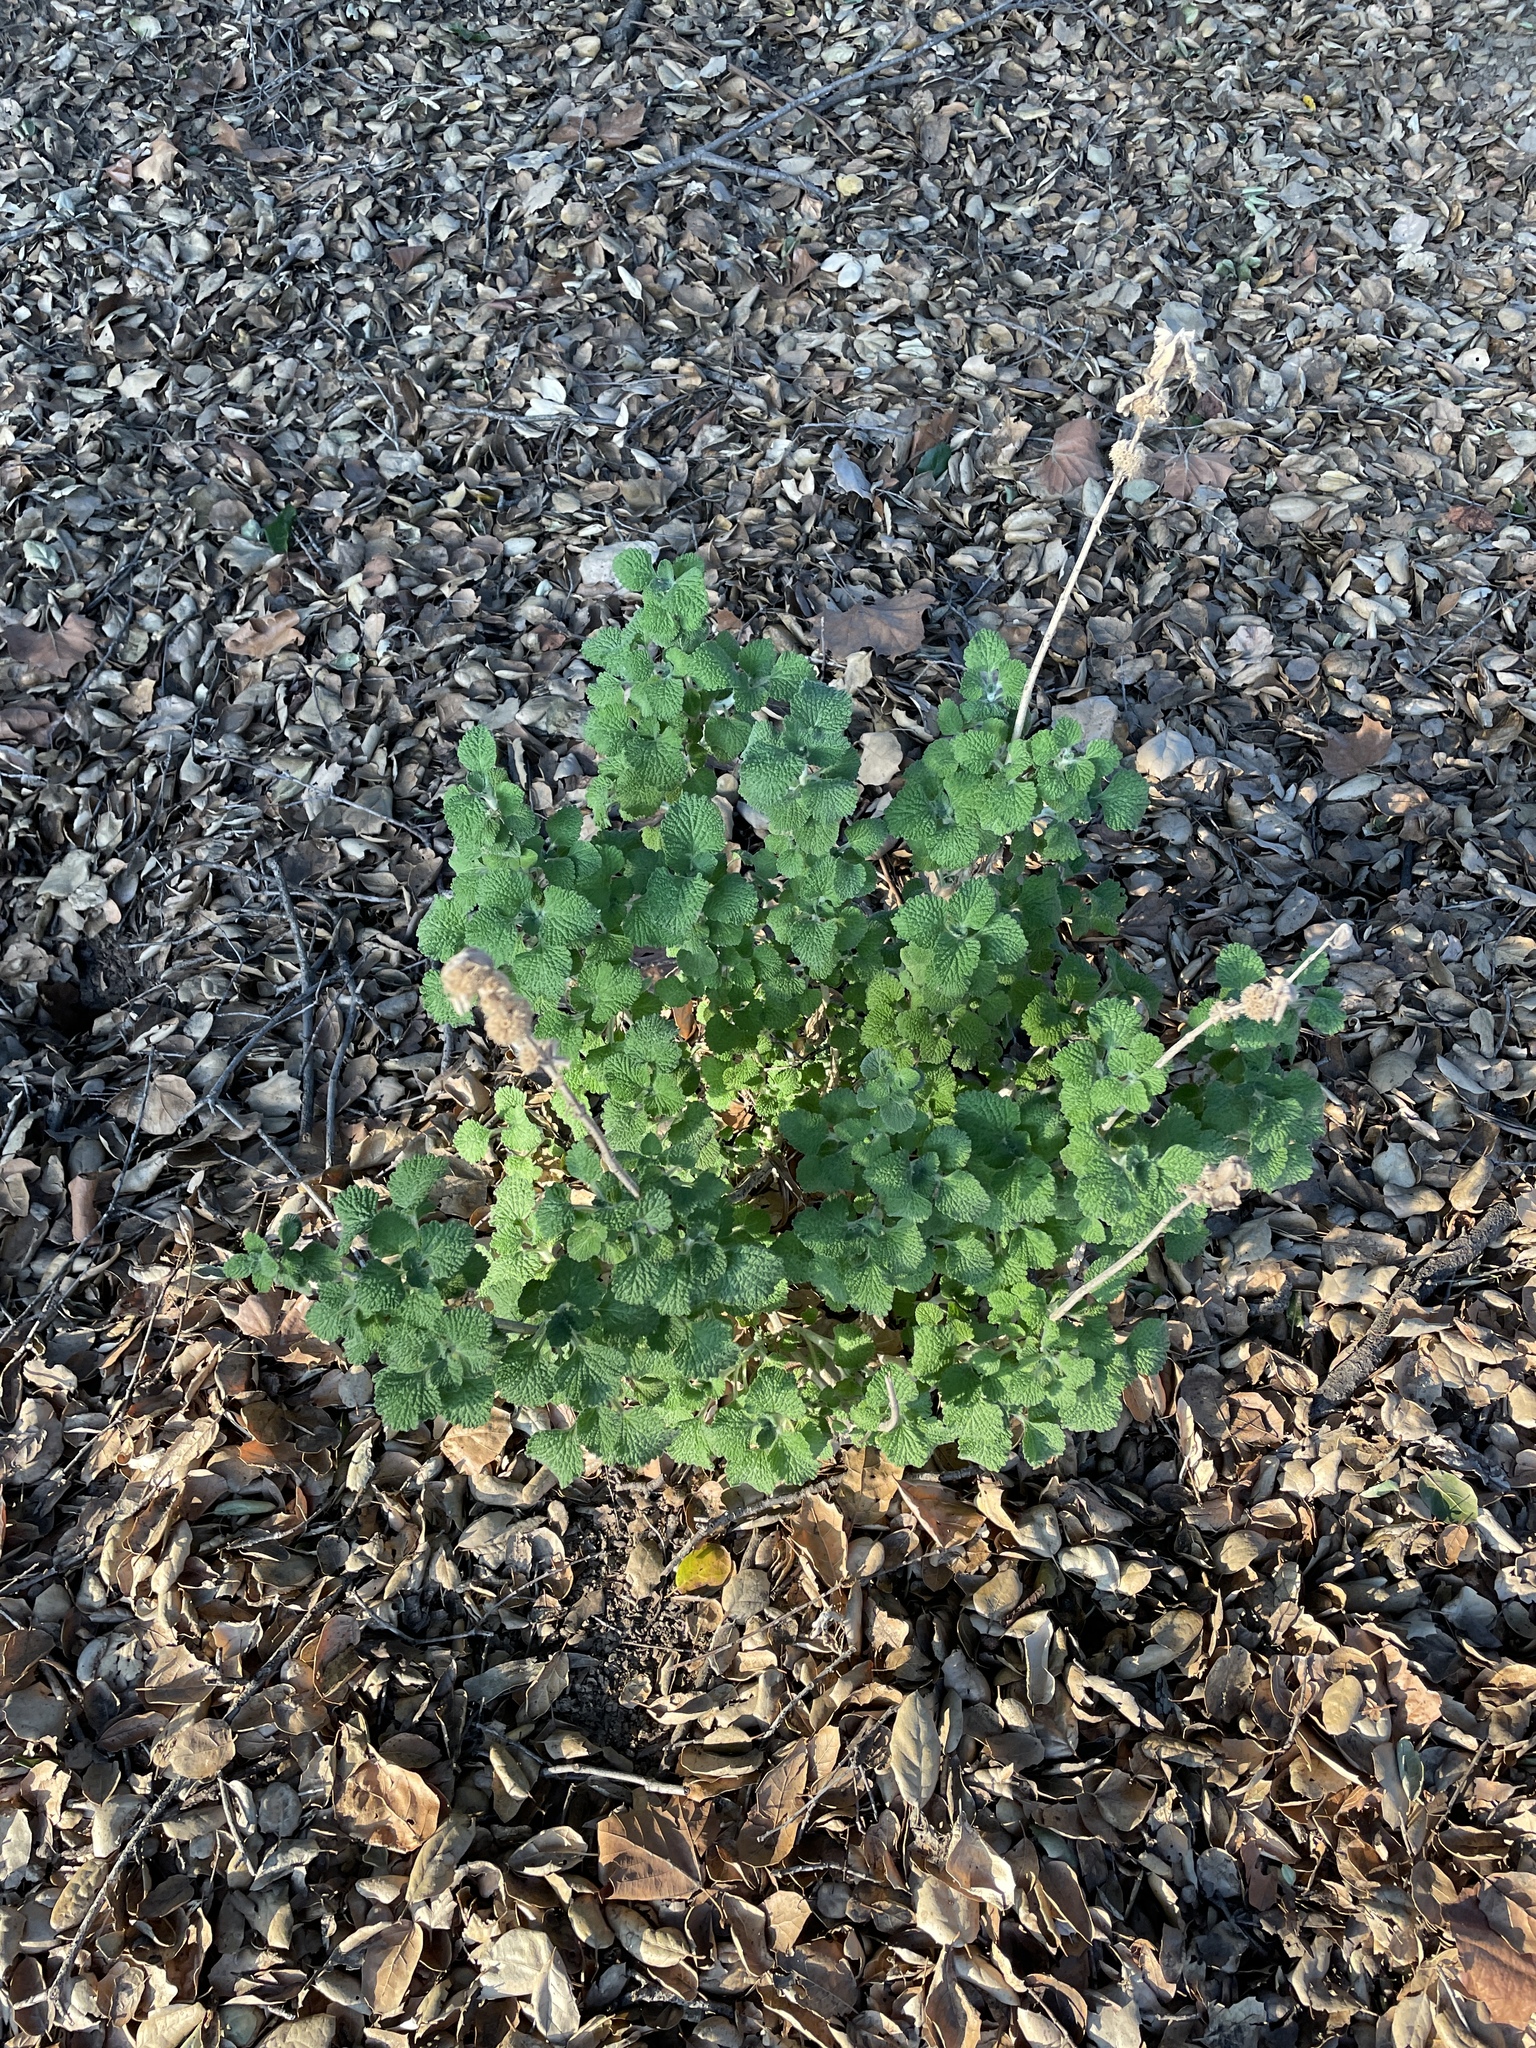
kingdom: Plantae
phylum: Tracheophyta
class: Magnoliopsida
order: Lamiales
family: Lamiaceae
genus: Marrubium
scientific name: Marrubium vulgare
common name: Horehound
